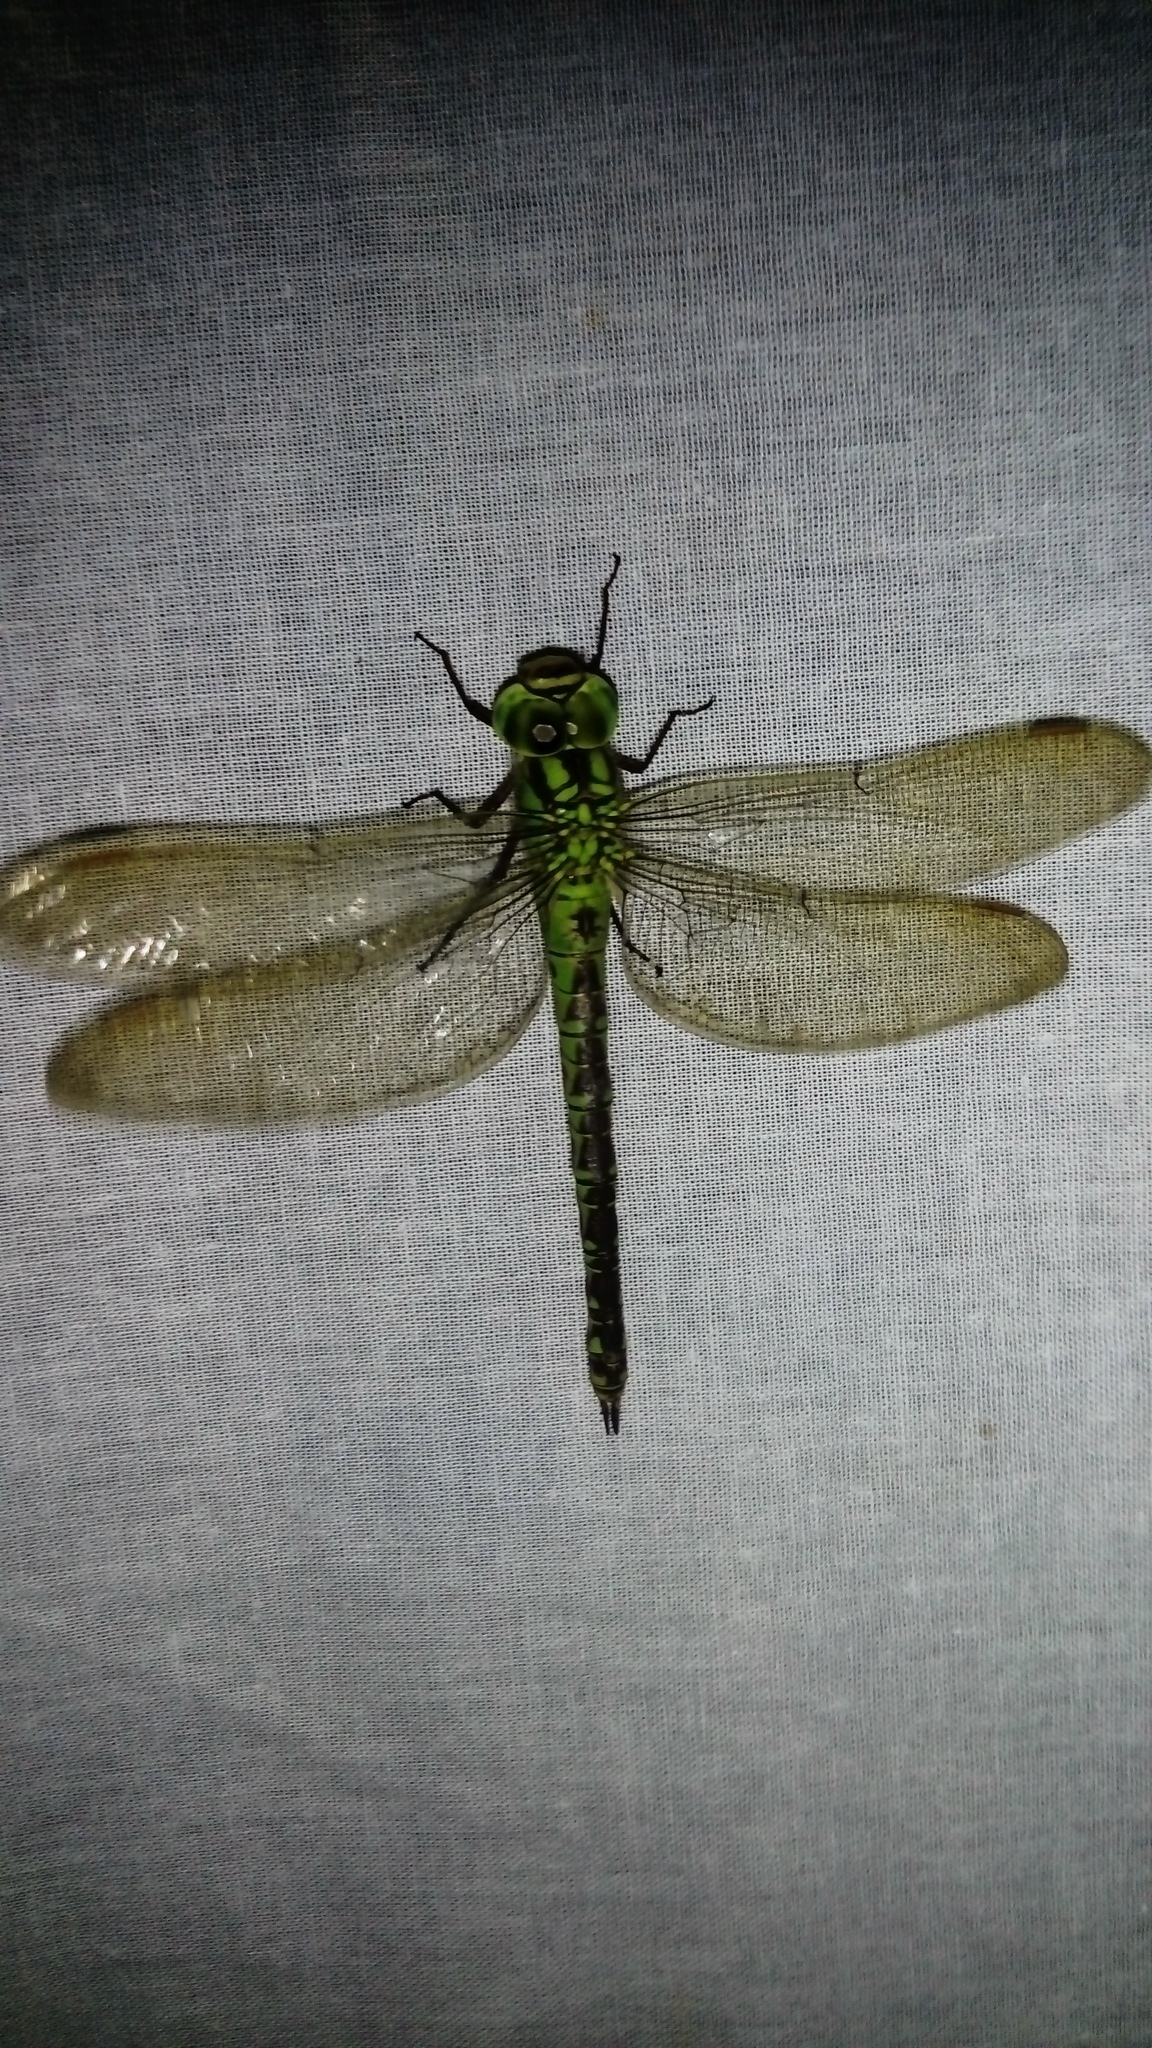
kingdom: Animalia
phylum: Arthropoda
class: Insecta
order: Odonata
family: Aeshnidae
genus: Aeshna
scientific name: Aeshna viridis
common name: Green hawker
